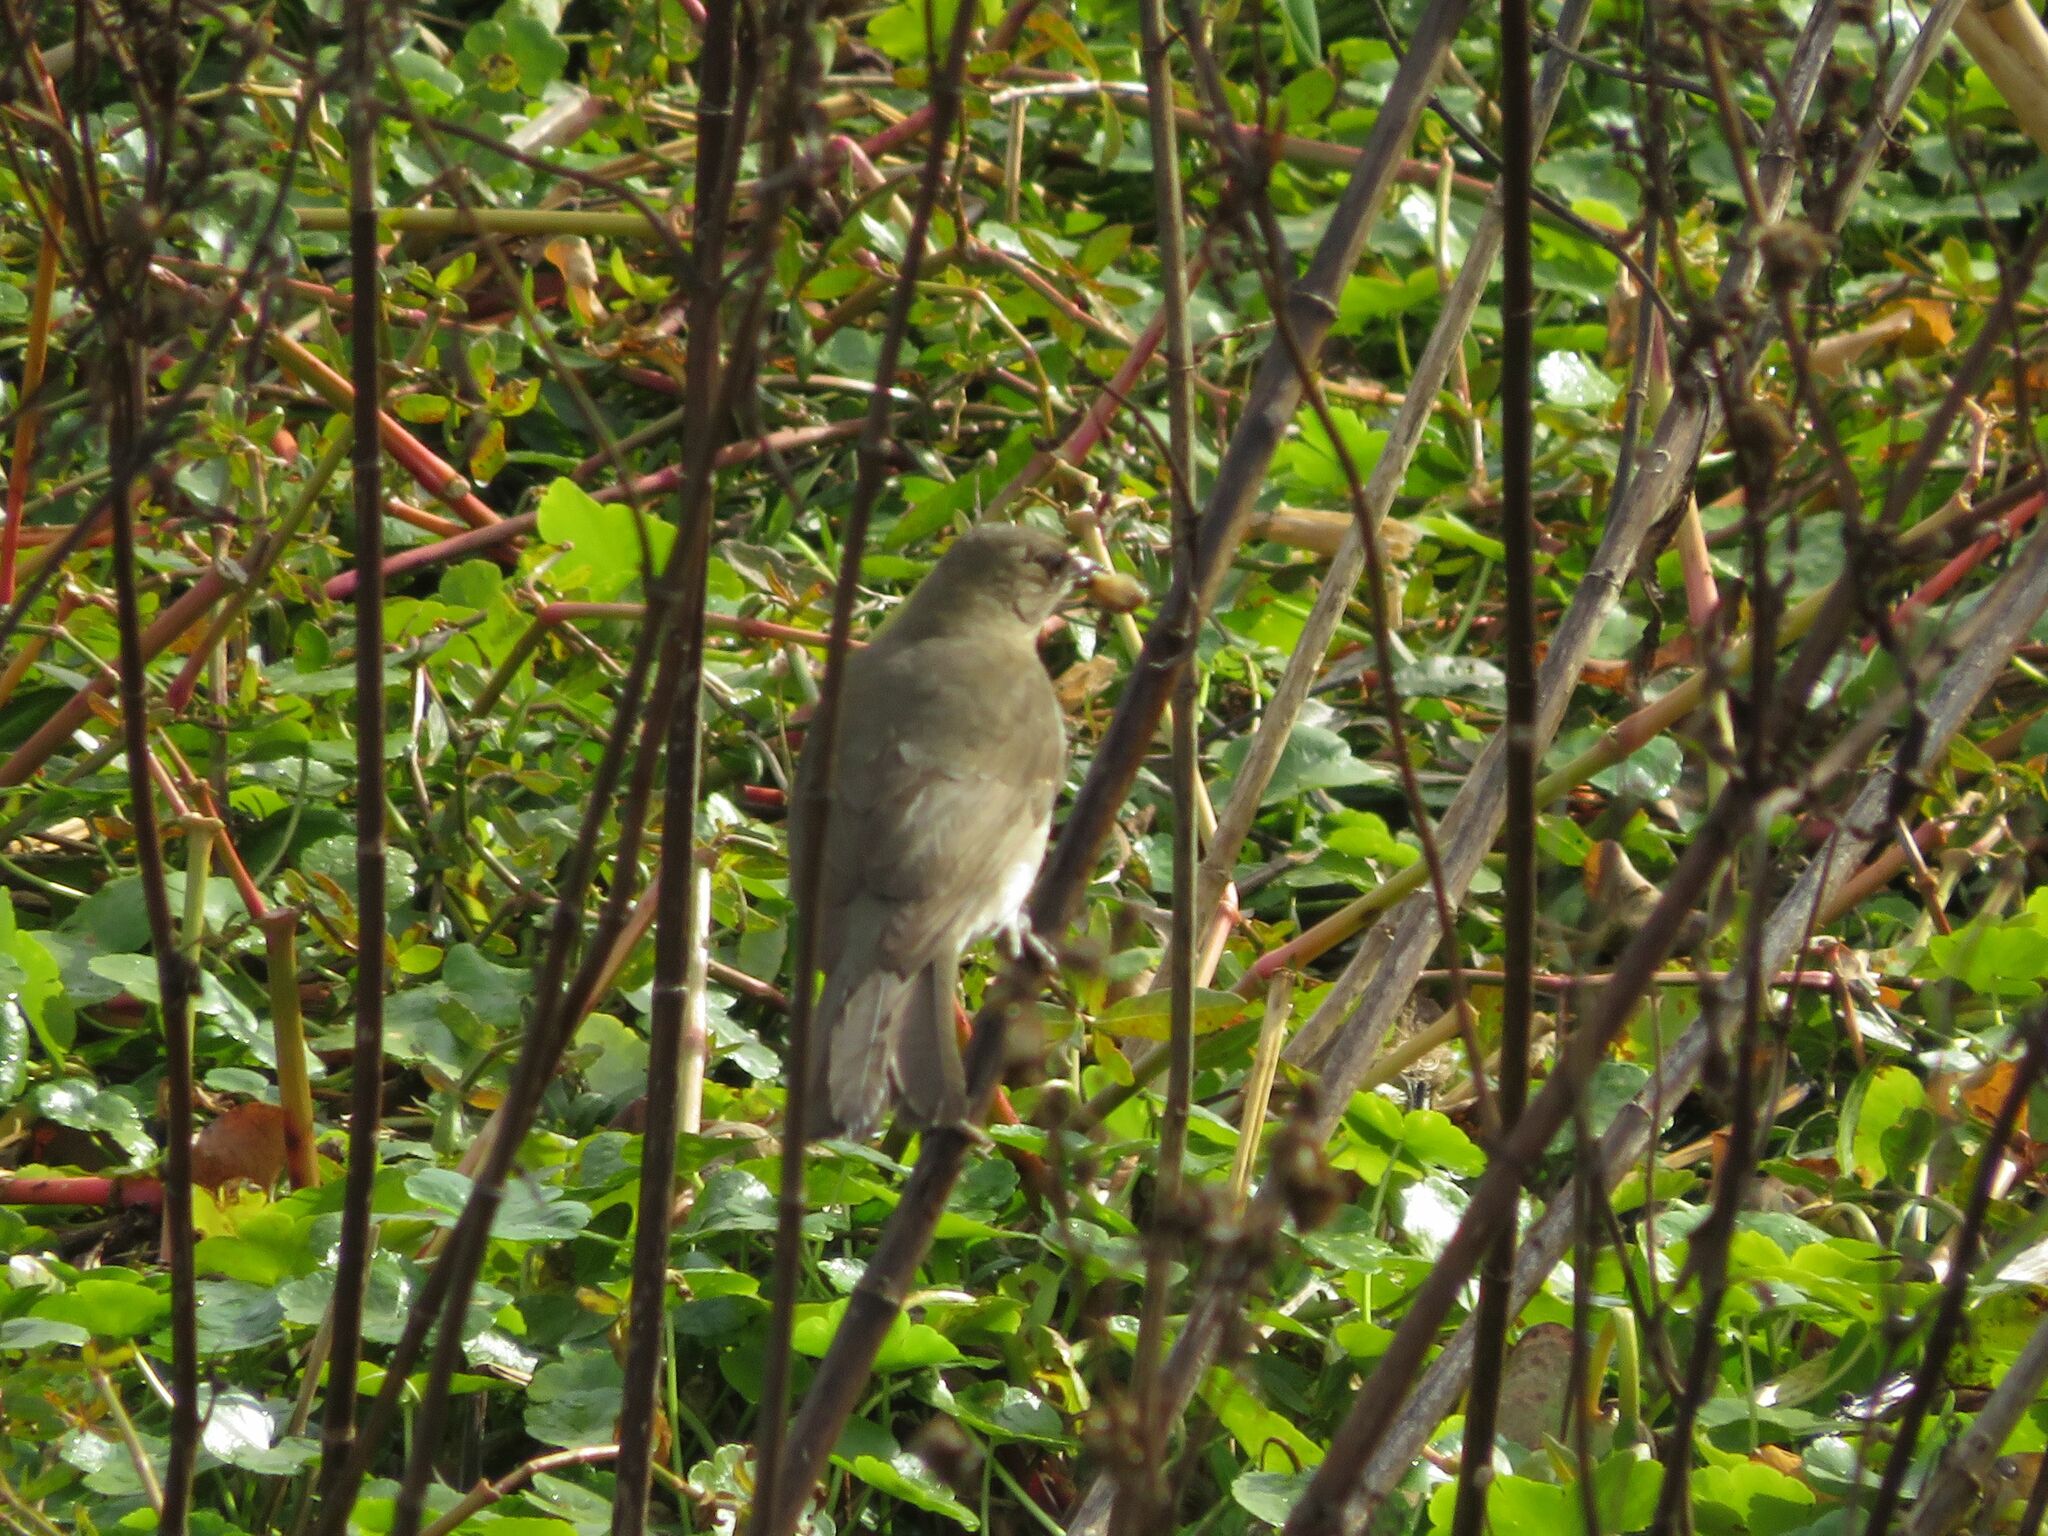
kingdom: Animalia
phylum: Chordata
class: Aves
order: Passeriformes
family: Turdidae
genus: Turdus
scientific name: Turdus amaurochalinus
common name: Creamy-bellied thrush
